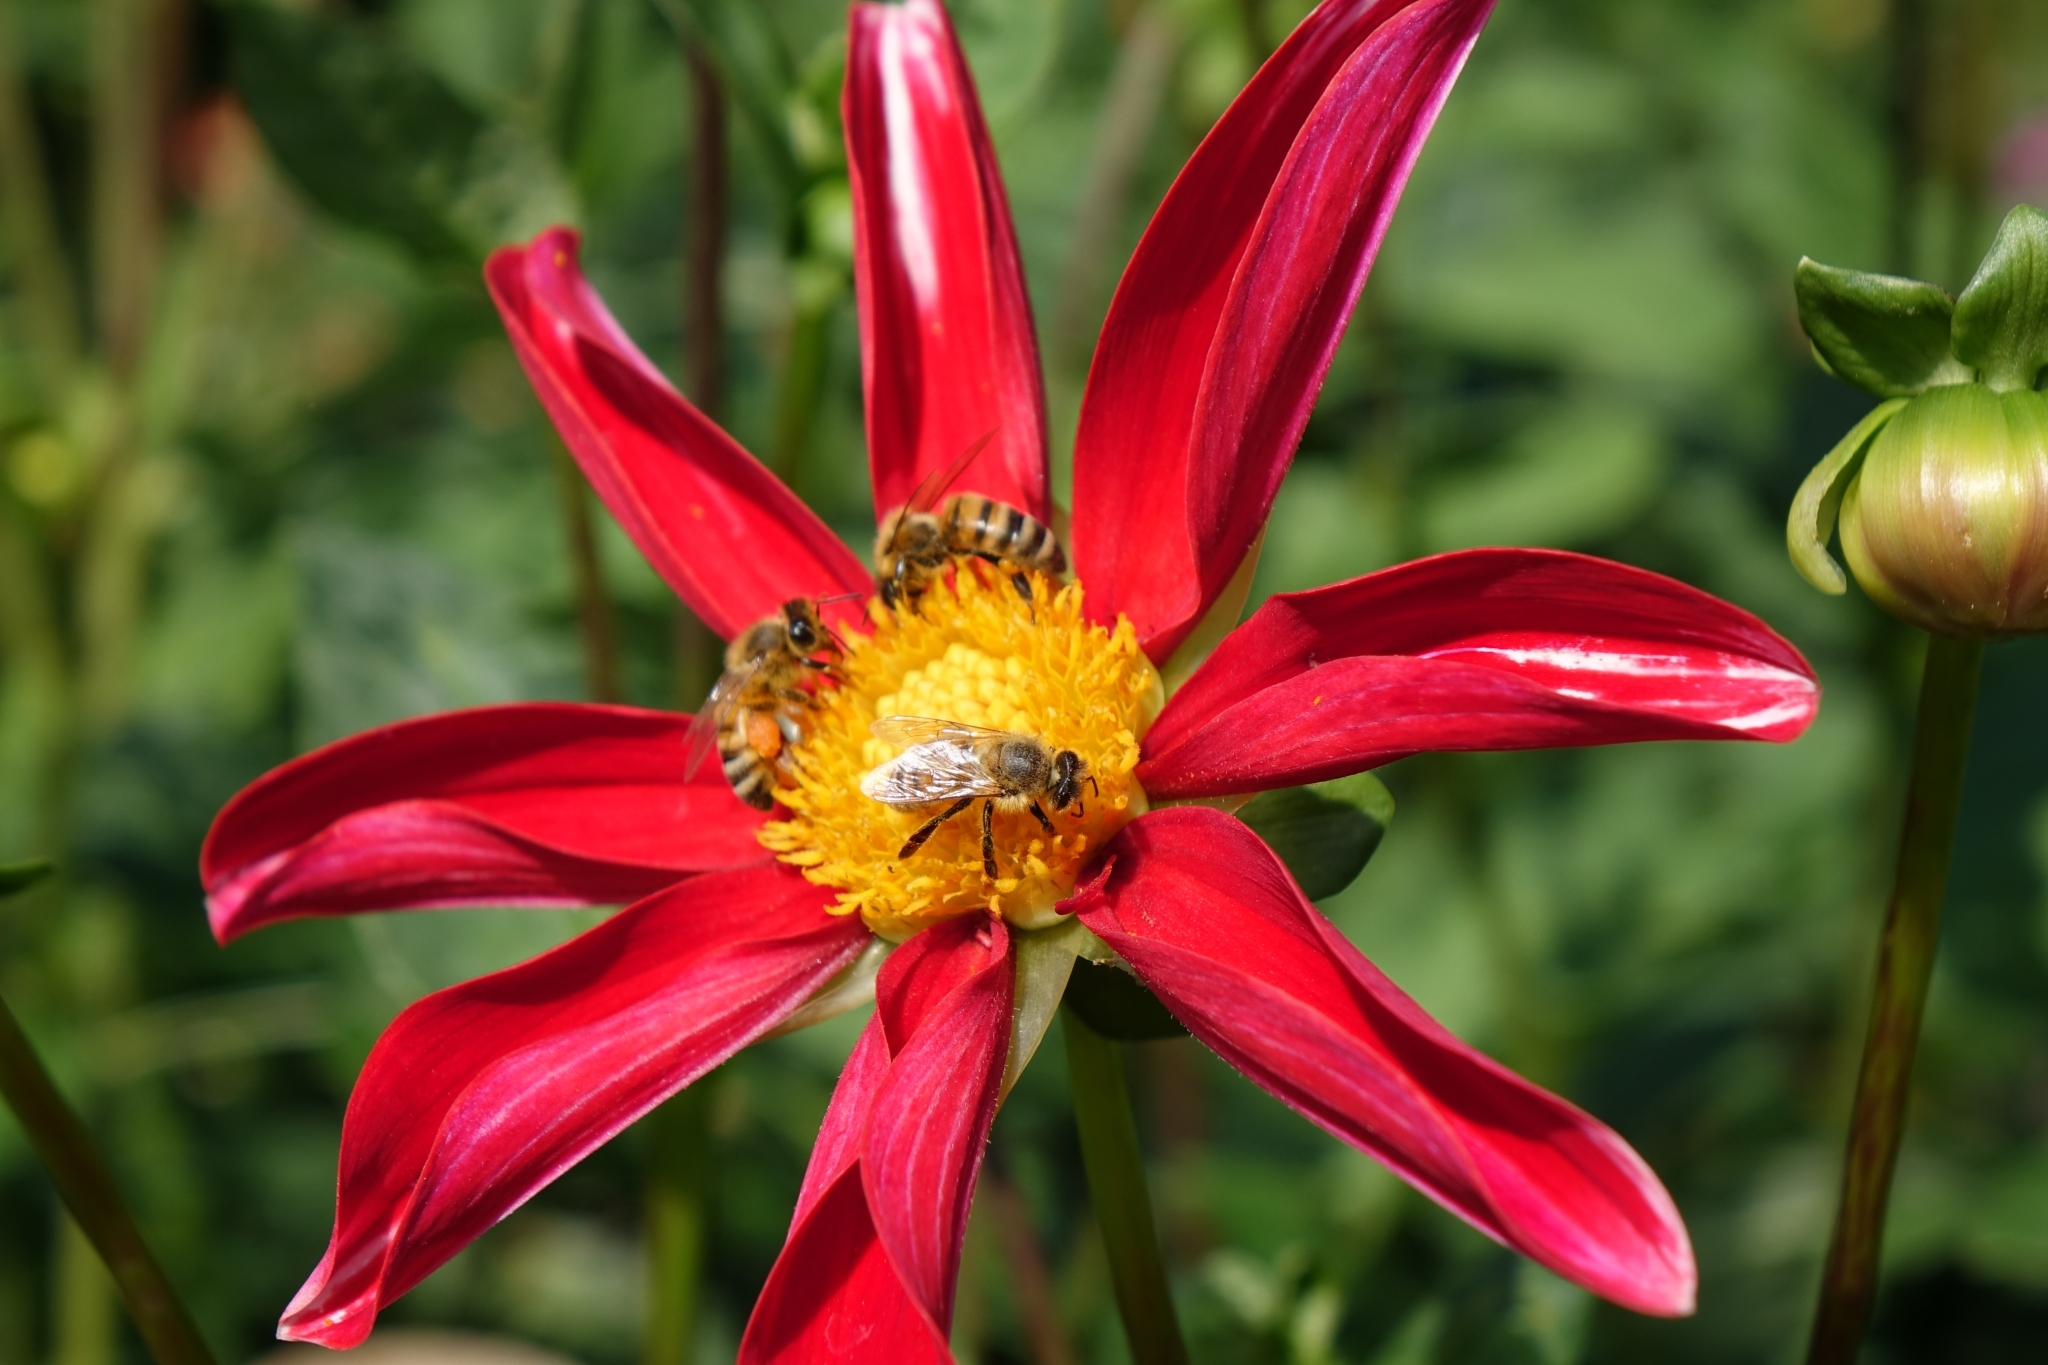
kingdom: Animalia
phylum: Arthropoda
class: Insecta
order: Hymenoptera
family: Apidae
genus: Apis
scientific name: Apis mellifera
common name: Honey bee
